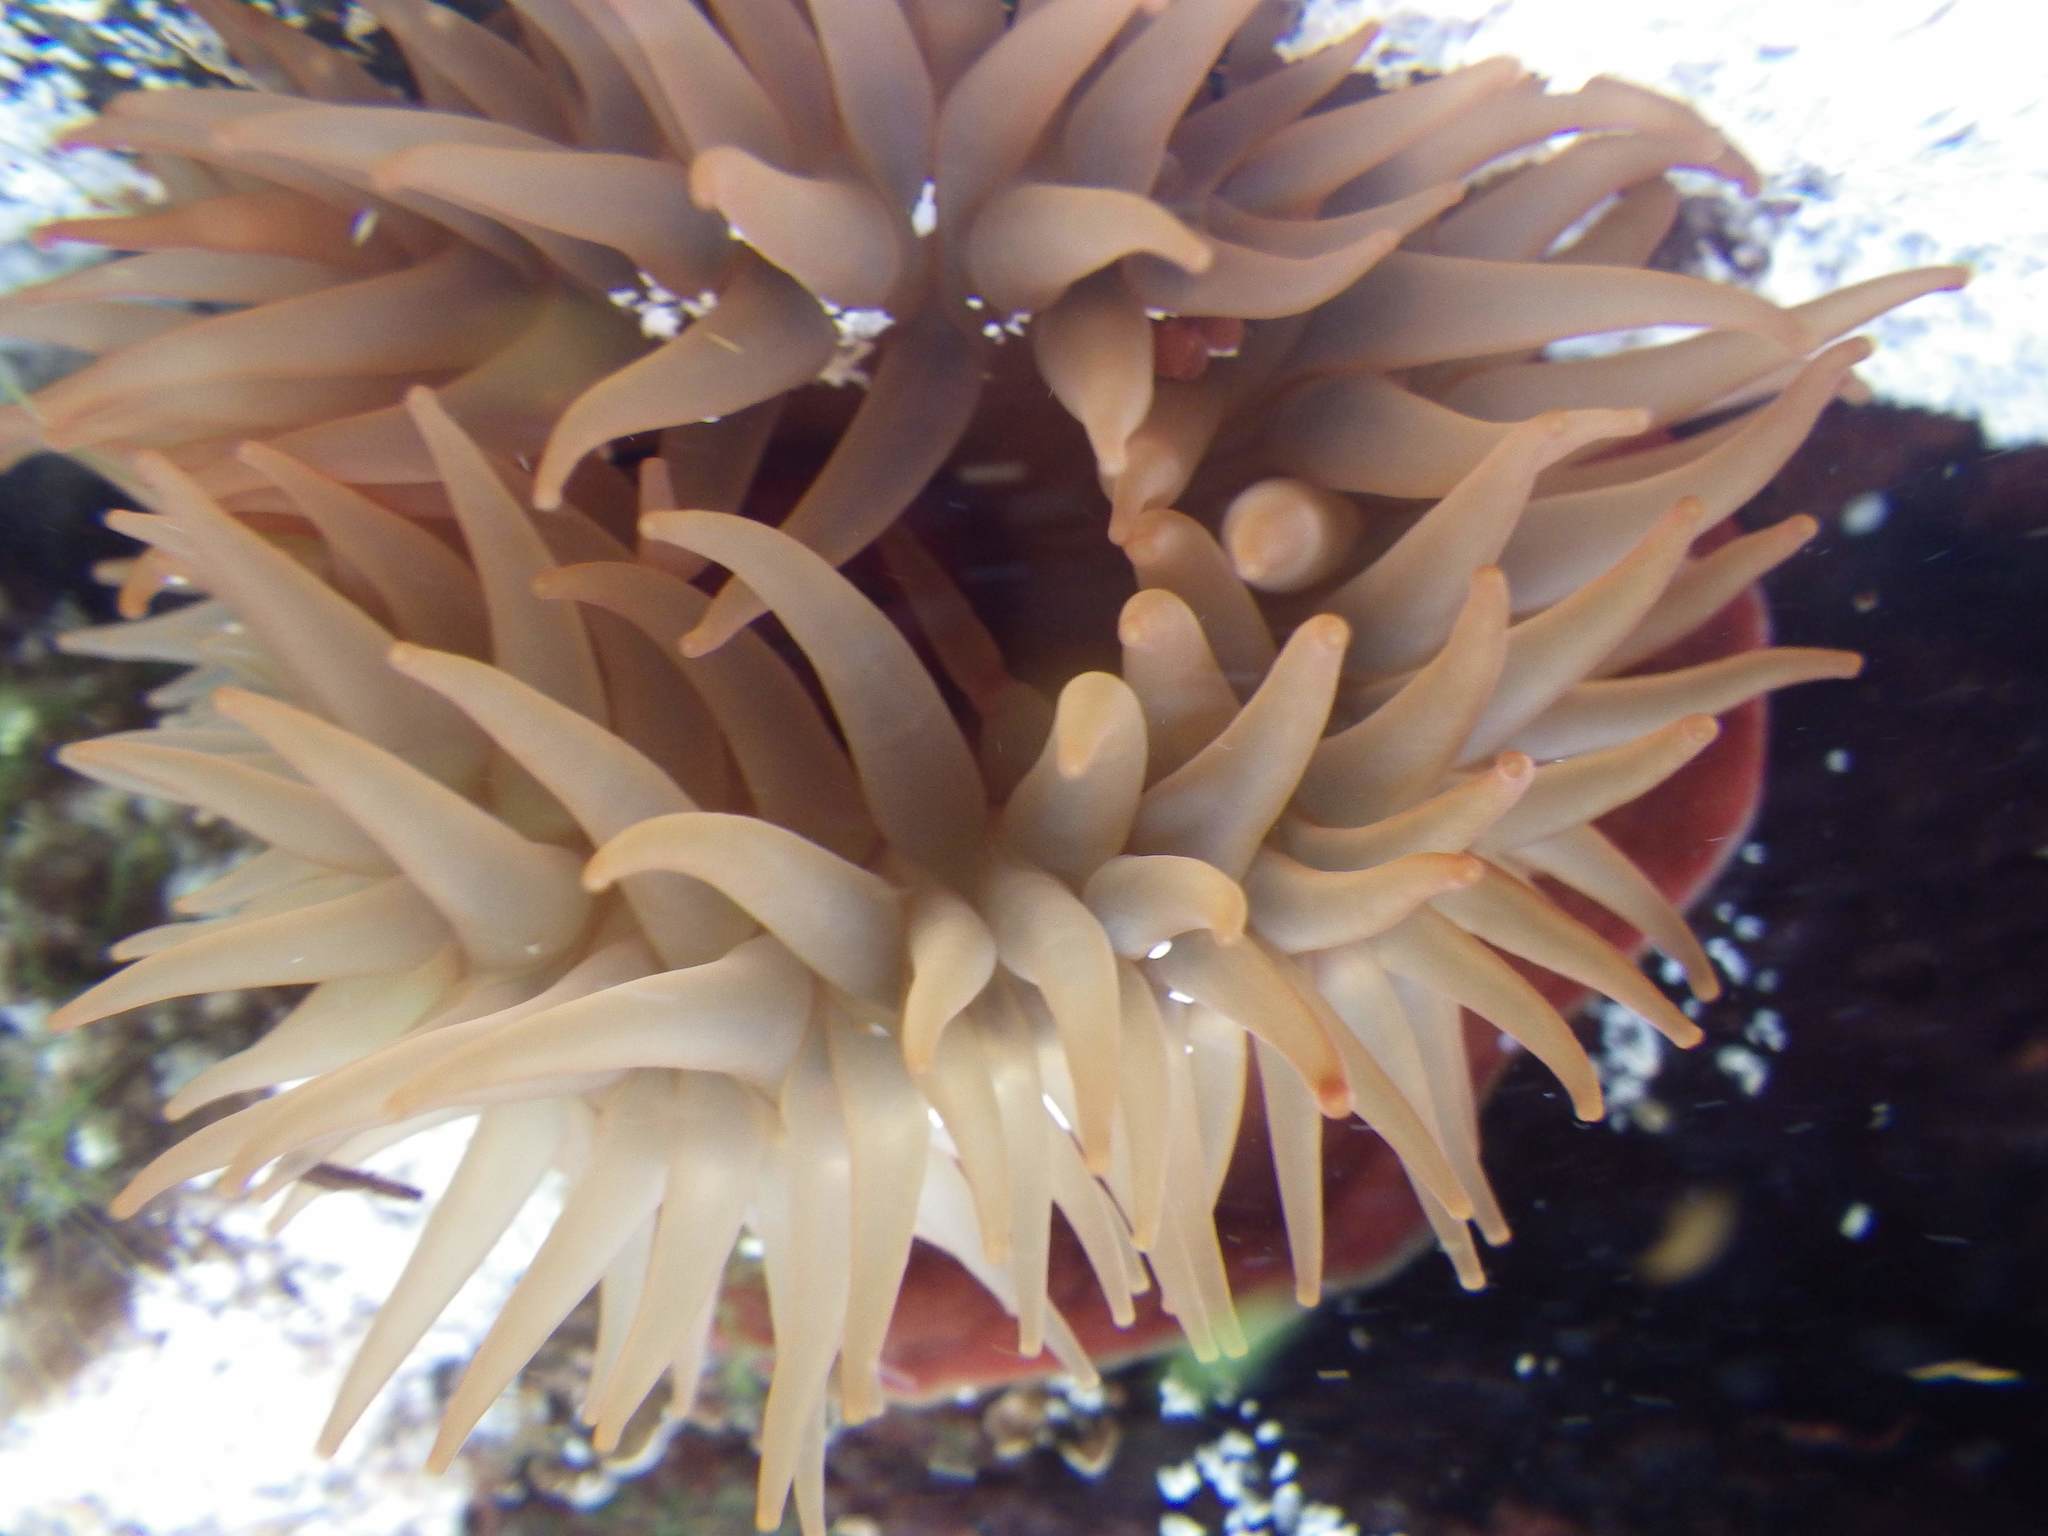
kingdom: Animalia
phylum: Cnidaria
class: Anthozoa
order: Actiniaria
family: Actiniidae
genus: Actinia
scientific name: Actinia equina
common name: Beadlet anemone
